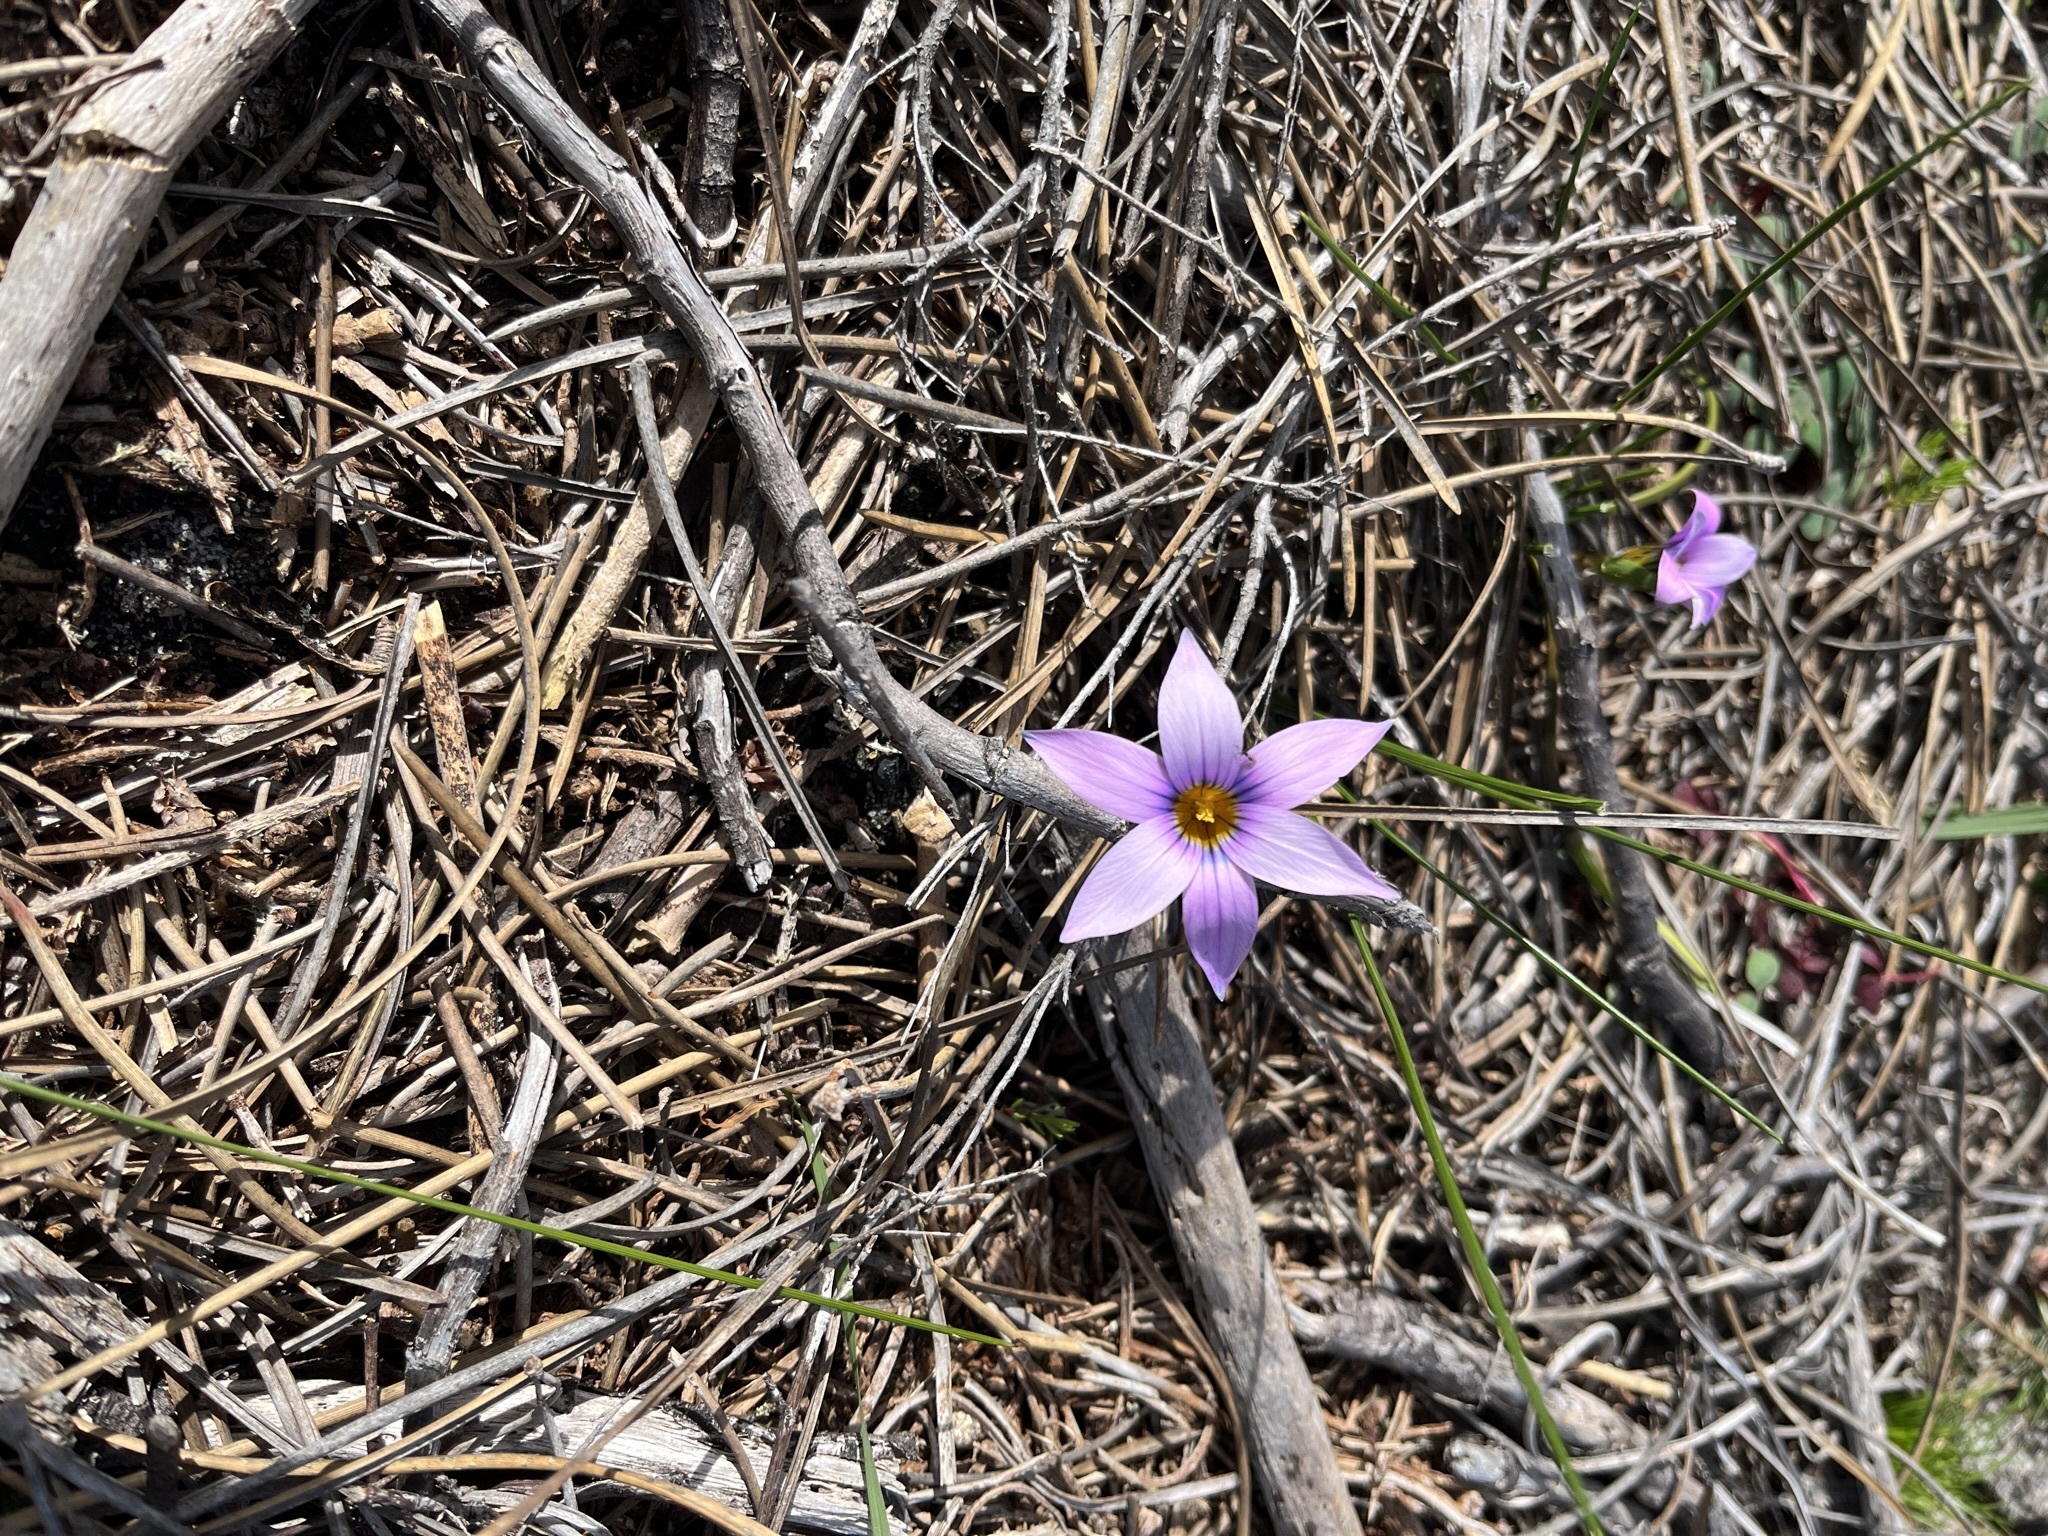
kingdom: Plantae
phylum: Tracheophyta
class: Liliopsida
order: Asparagales
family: Iridaceae
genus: Romulea
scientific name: Romulea rosea
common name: Oniongrass
